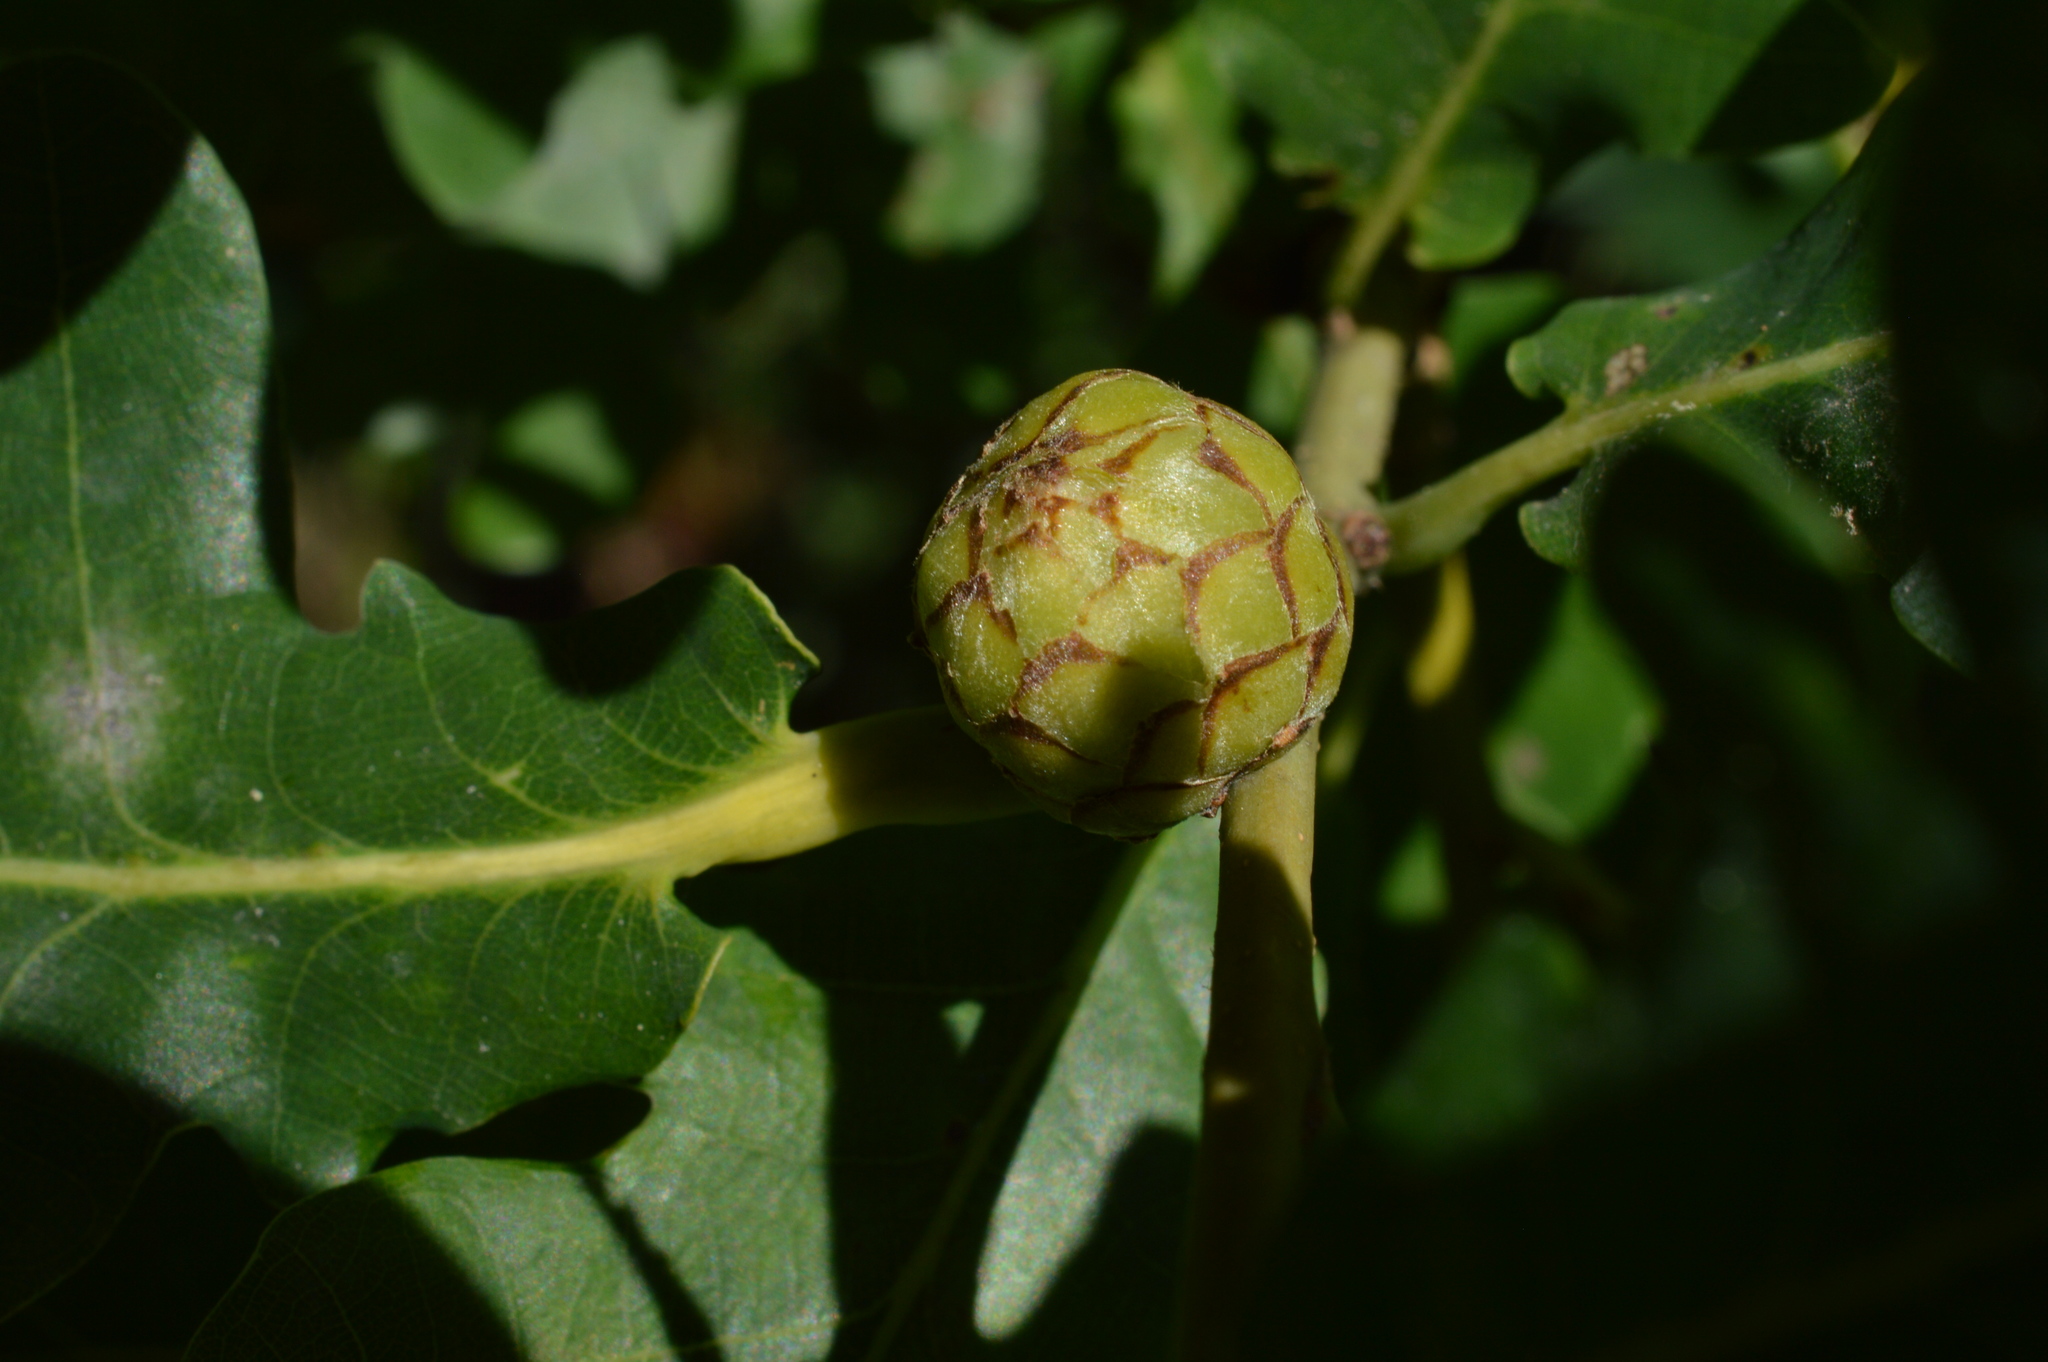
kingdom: Animalia
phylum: Arthropoda
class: Insecta
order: Hymenoptera
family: Cynipidae
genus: Andricus
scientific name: Andricus foecundatrix
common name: Artichoke gall
